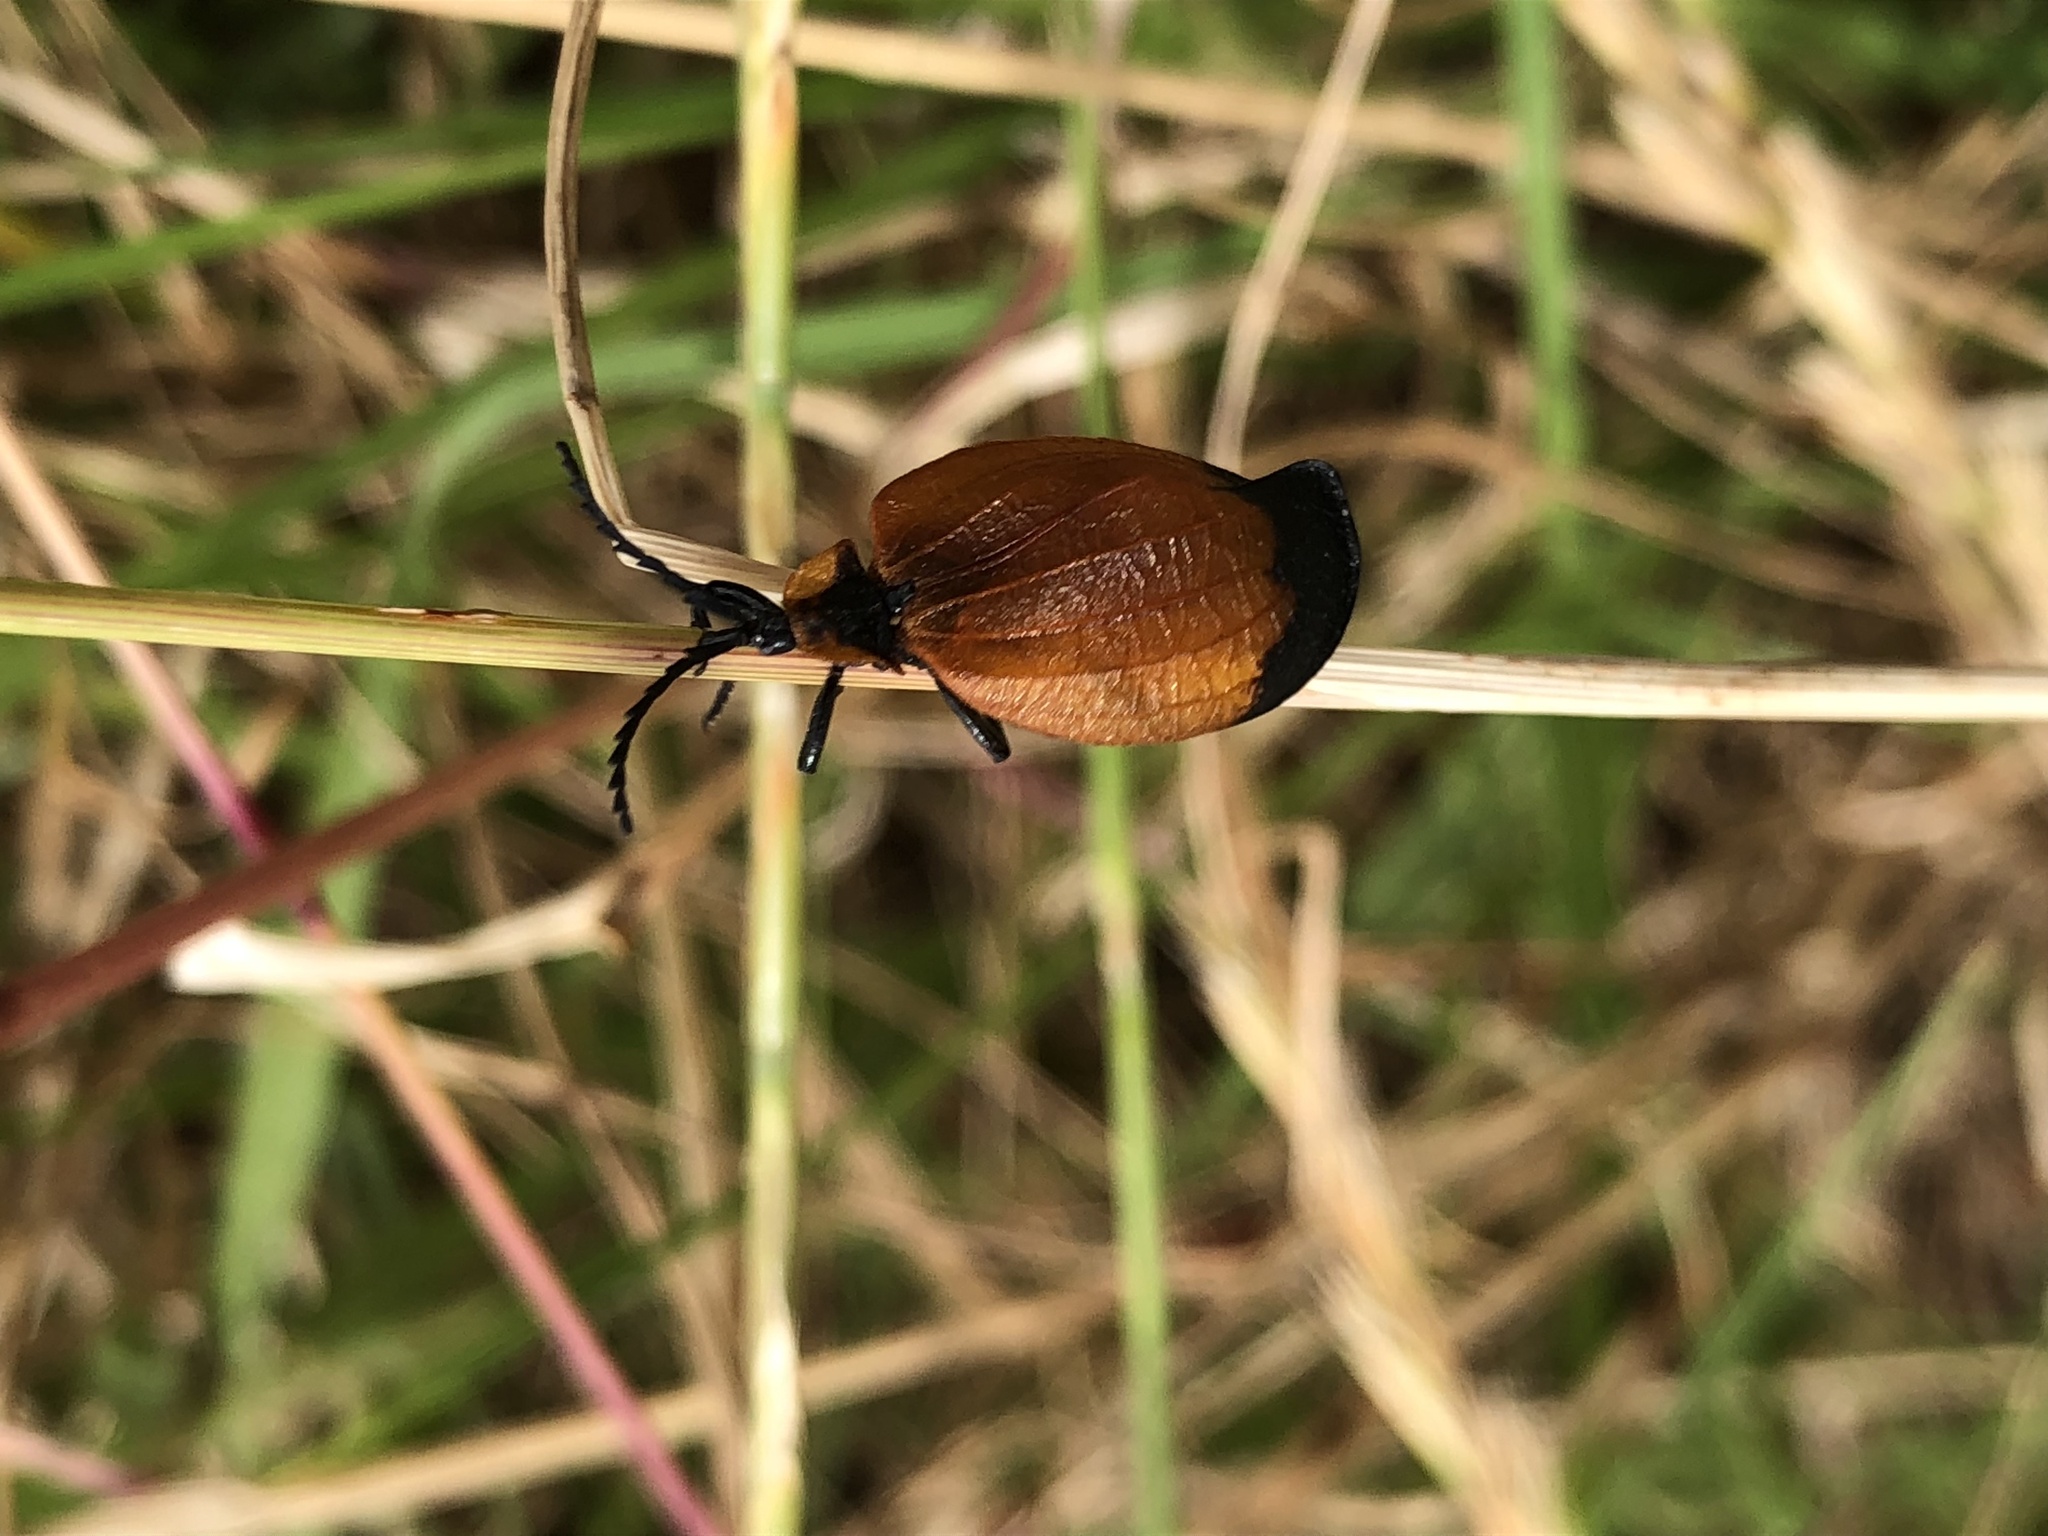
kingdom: Animalia
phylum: Arthropoda
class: Insecta
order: Coleoptera
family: Lycidae
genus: Lycus
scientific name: Lycus
